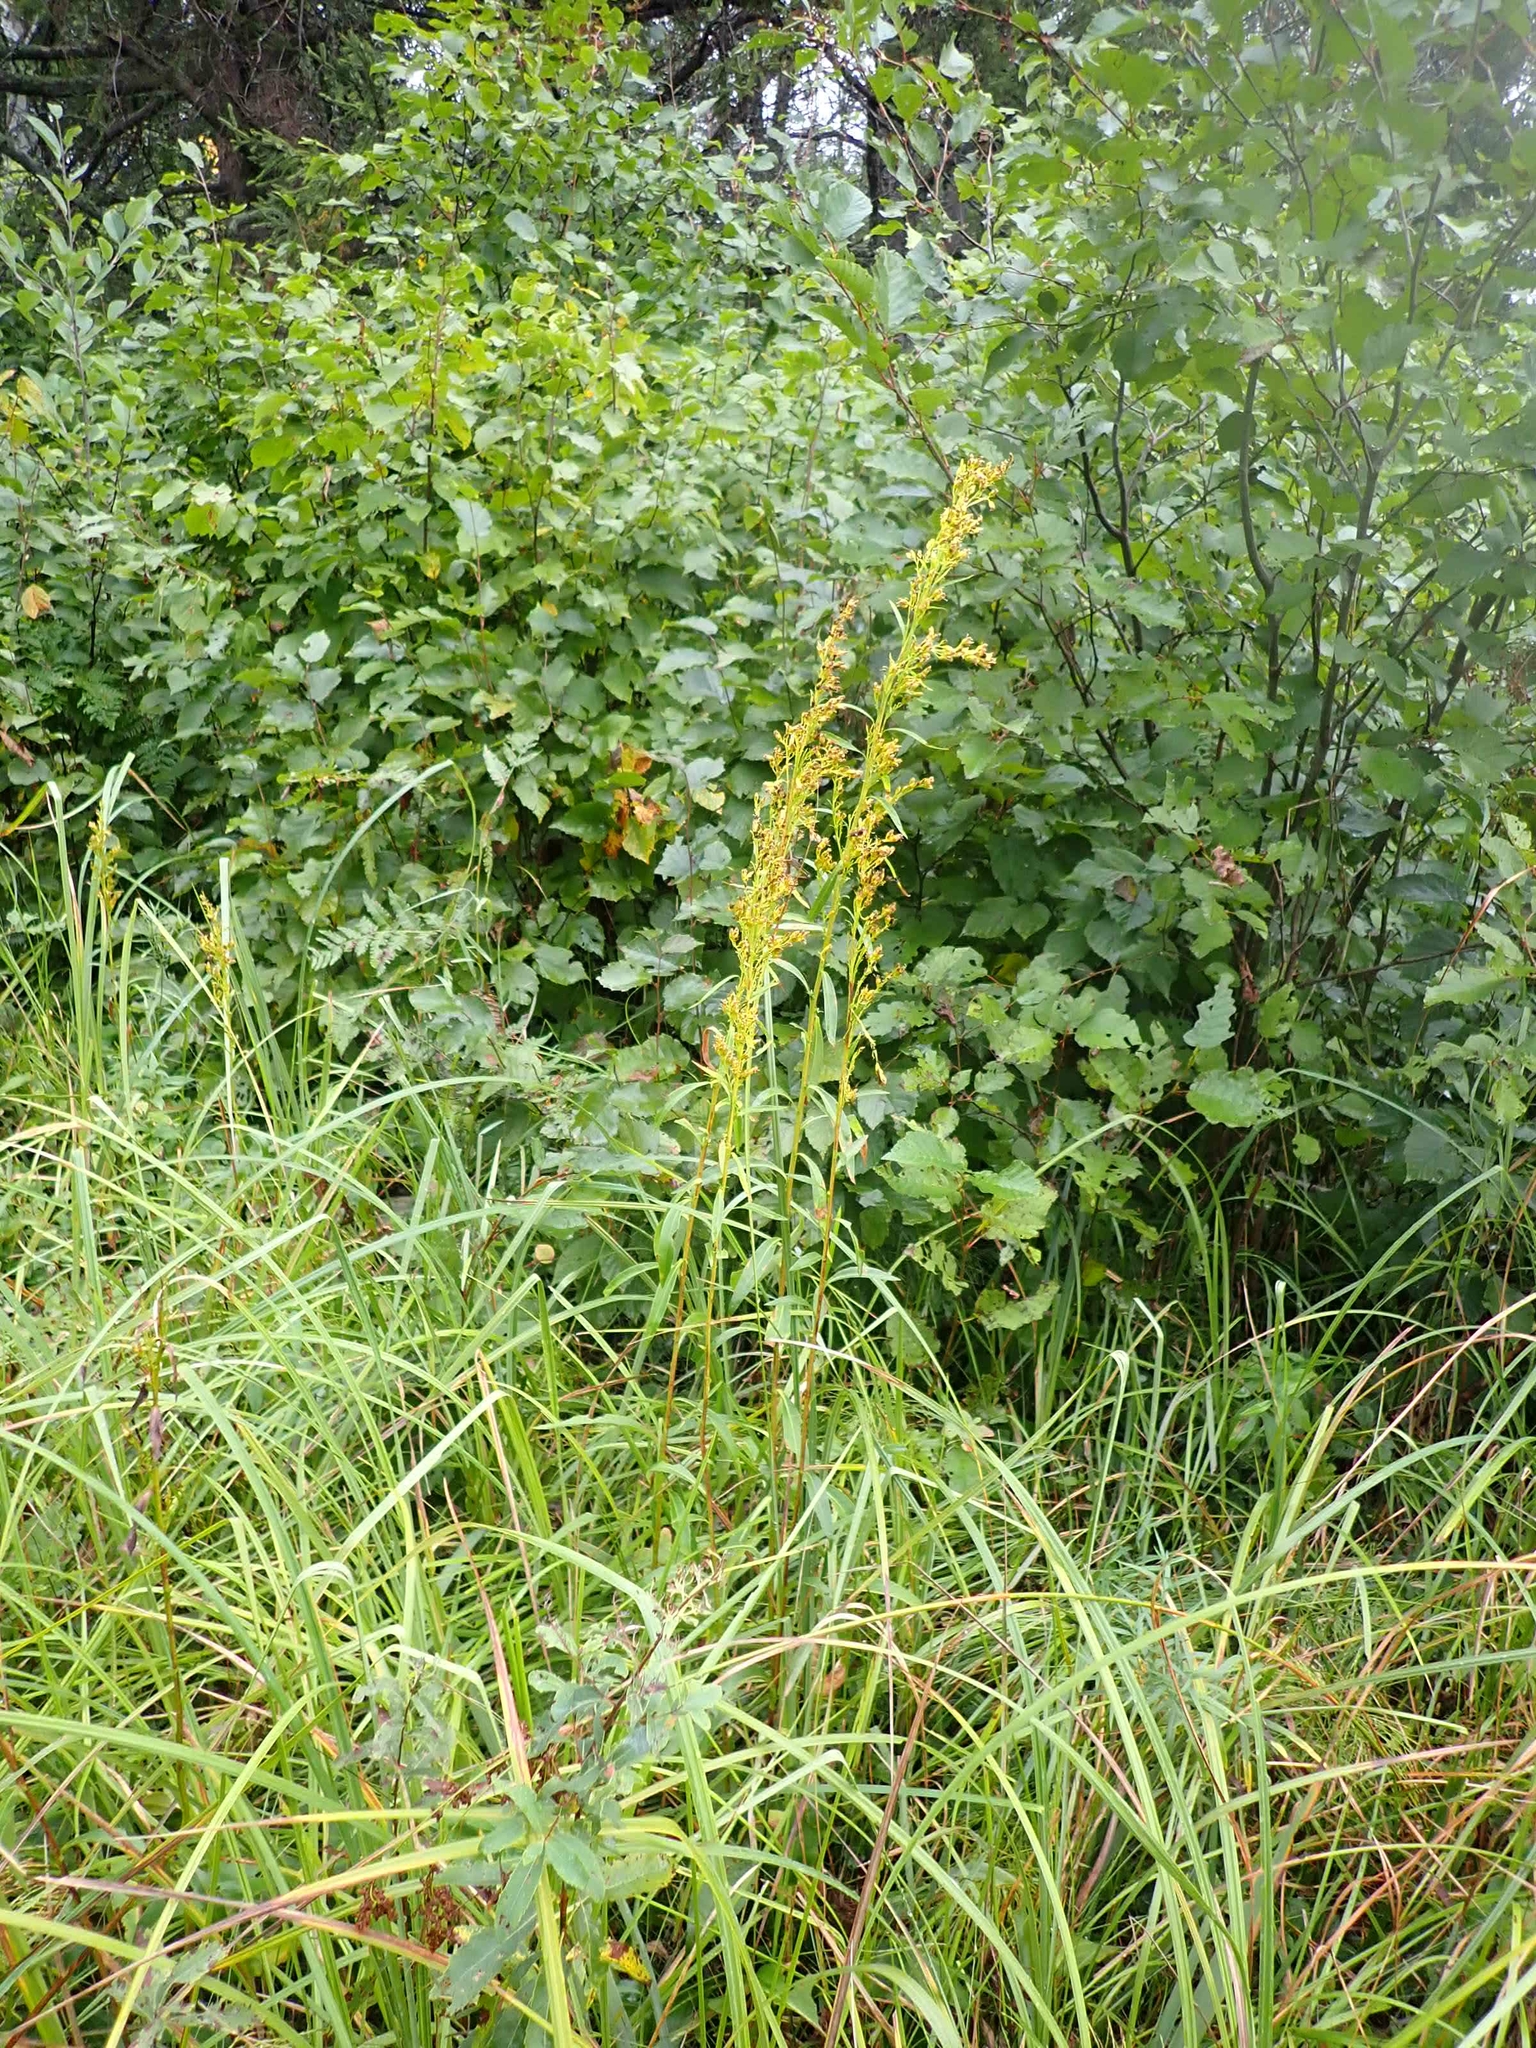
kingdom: Plantae
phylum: Tracheophyta
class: Magnoliopsida
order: Asterales
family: Asteraceae
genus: Solidago
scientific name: Solidago uliginosa
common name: Bog goldenrod
